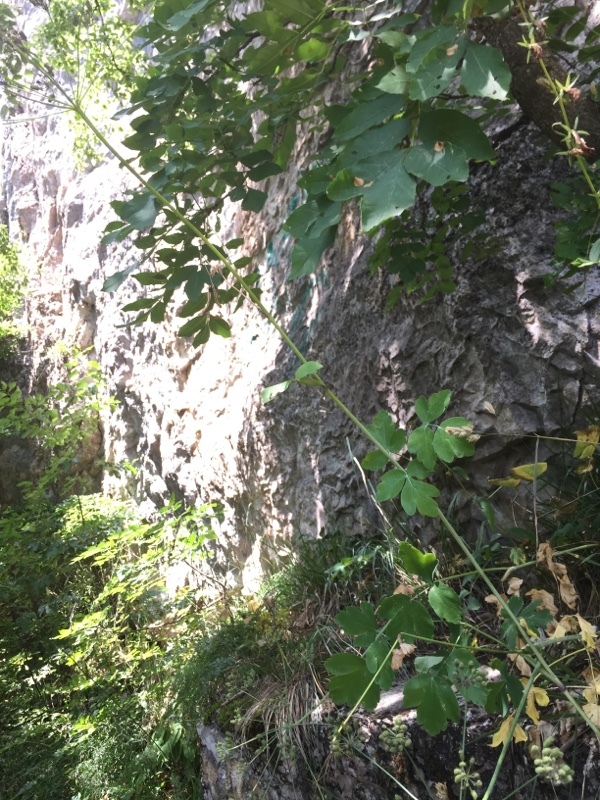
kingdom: Plantae
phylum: Tracheophyta
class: Magnoliopsida
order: Apiales
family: Apiaceae
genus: Laser
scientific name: Laser trilobum
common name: Laser
